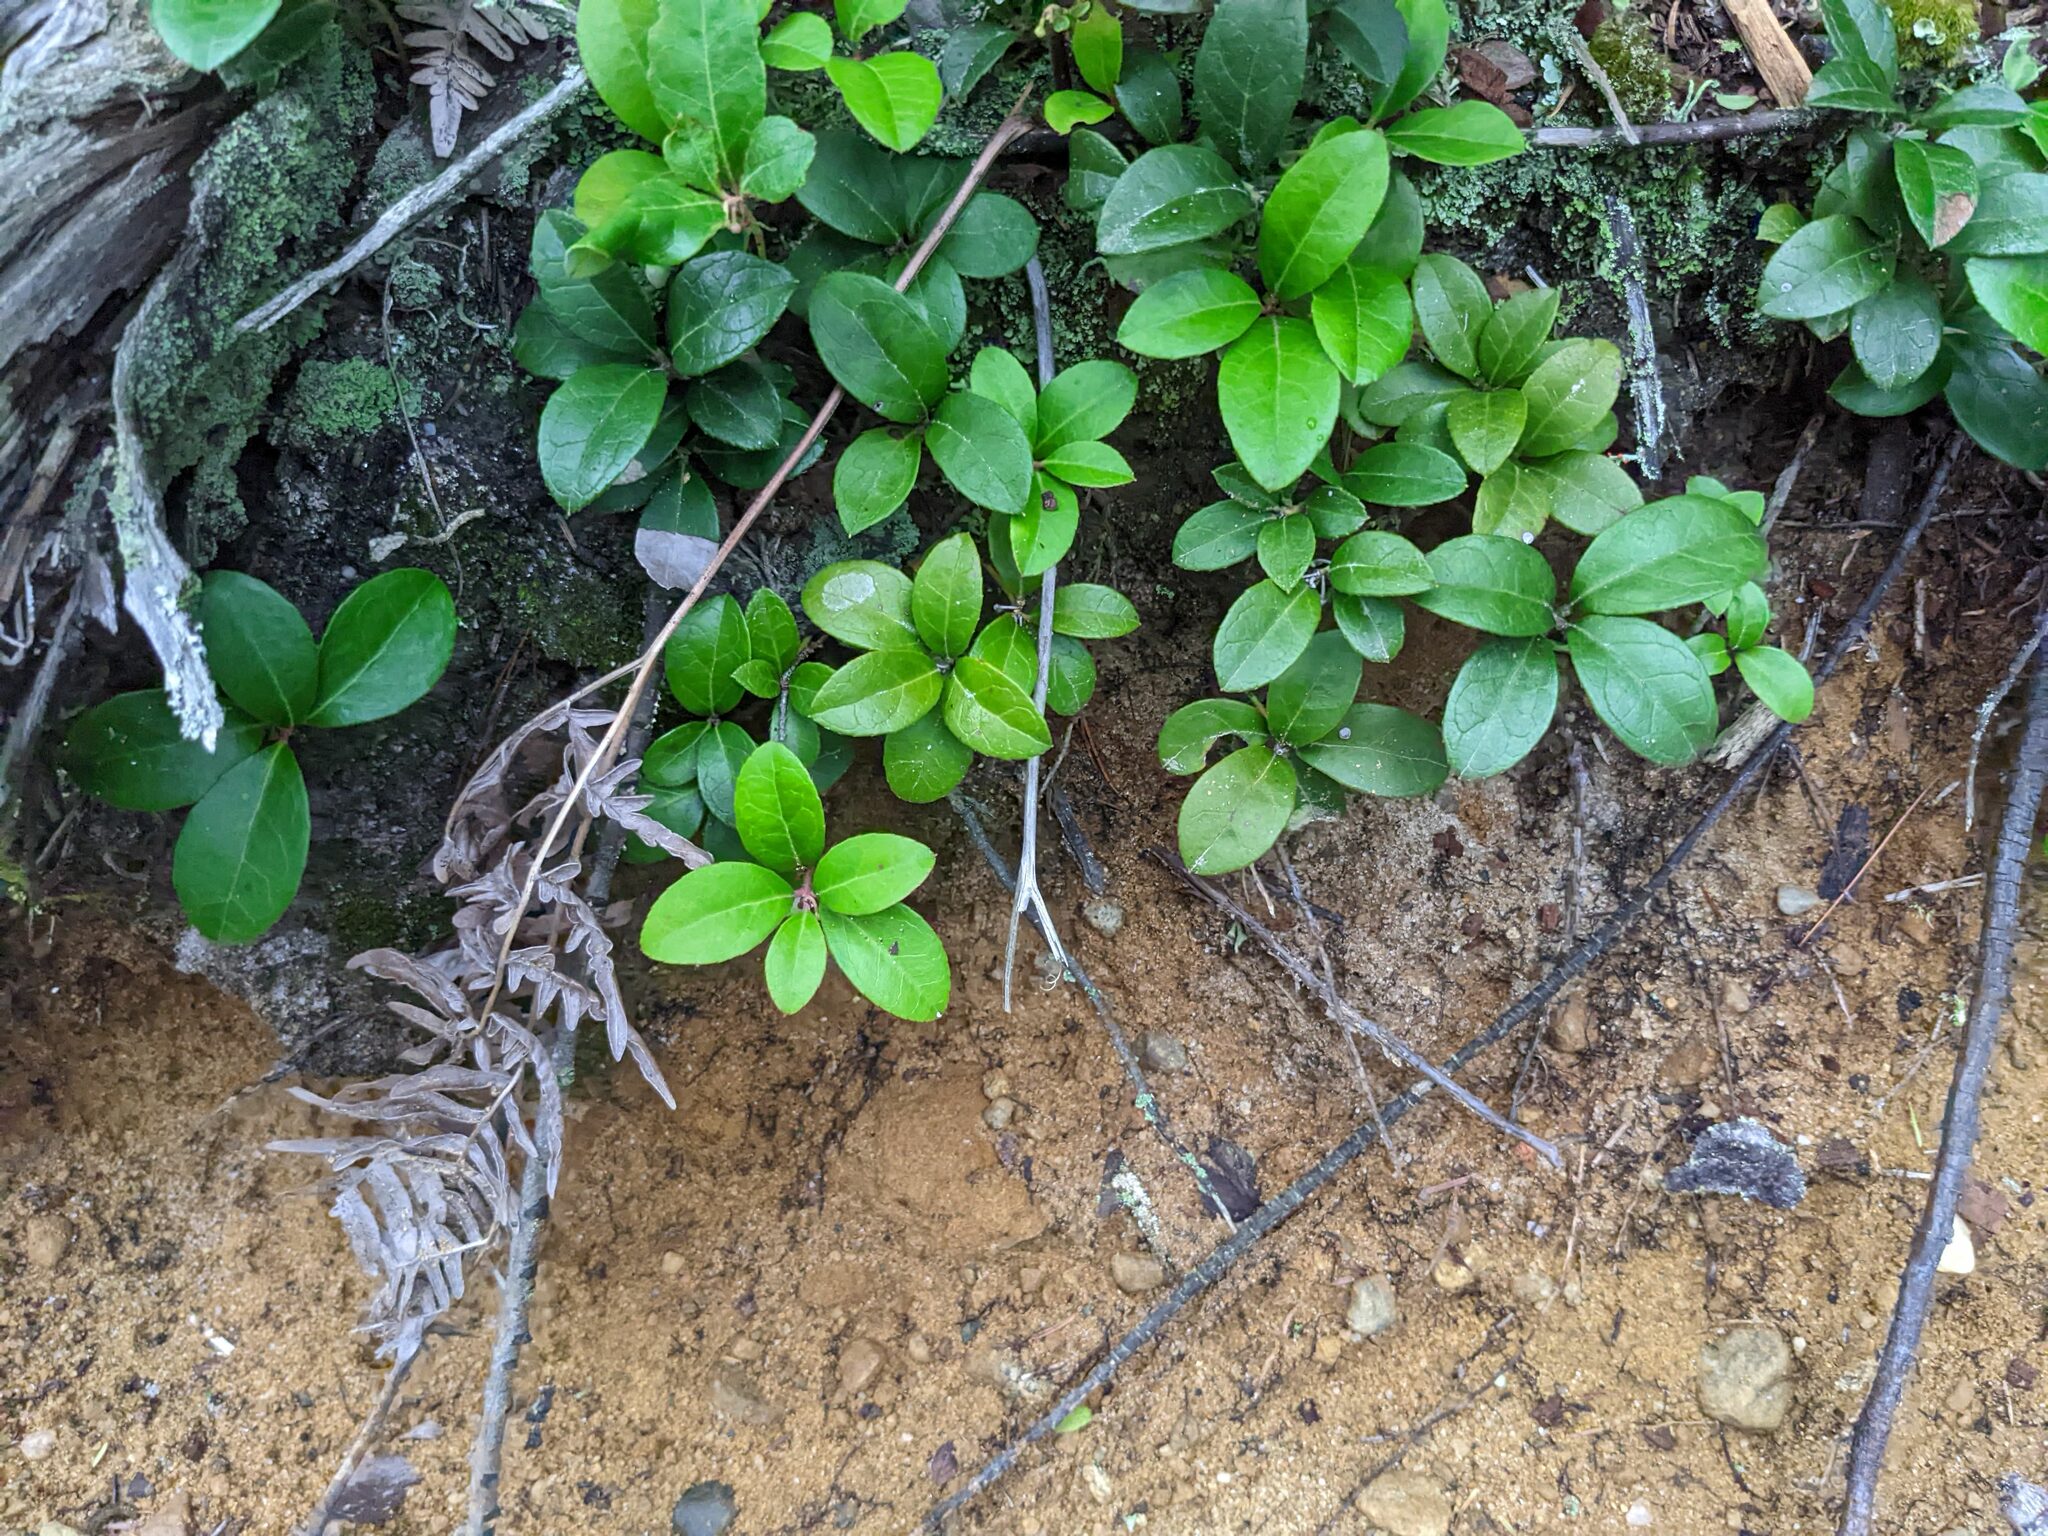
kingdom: Plantae
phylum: Tracheophyta
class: Magnoliopsida
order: Ericales
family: Ericaceae
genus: Gaultheria
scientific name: Gaultheria procumbens
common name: Checkerberry
